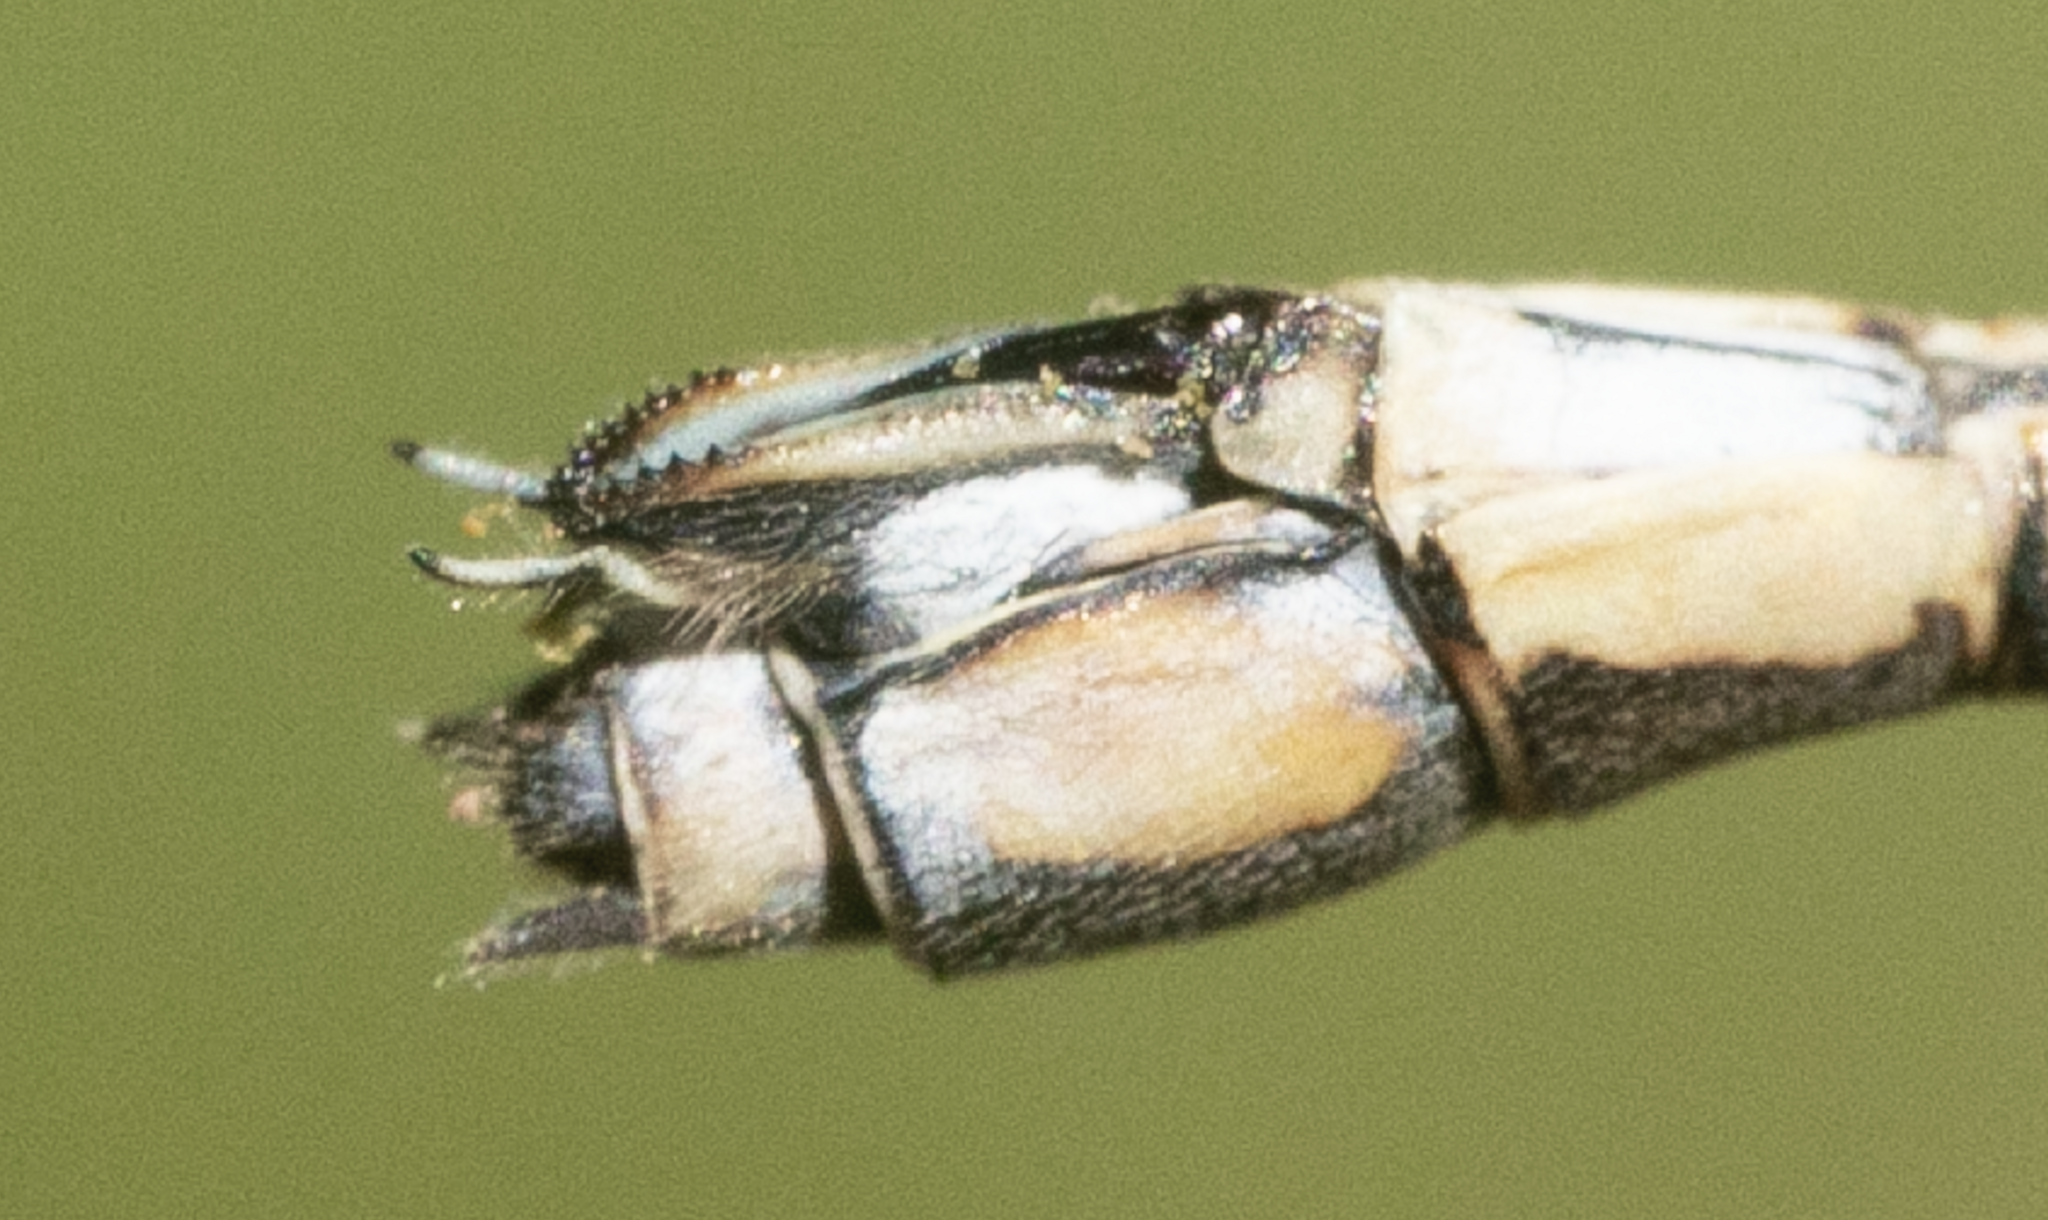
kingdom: Animalia
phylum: Arthropoda
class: Insecta
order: Odonata
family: Lestidae
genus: Chalcolestes
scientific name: Chalcolestes parvidens
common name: Eastern willow spreadwing
